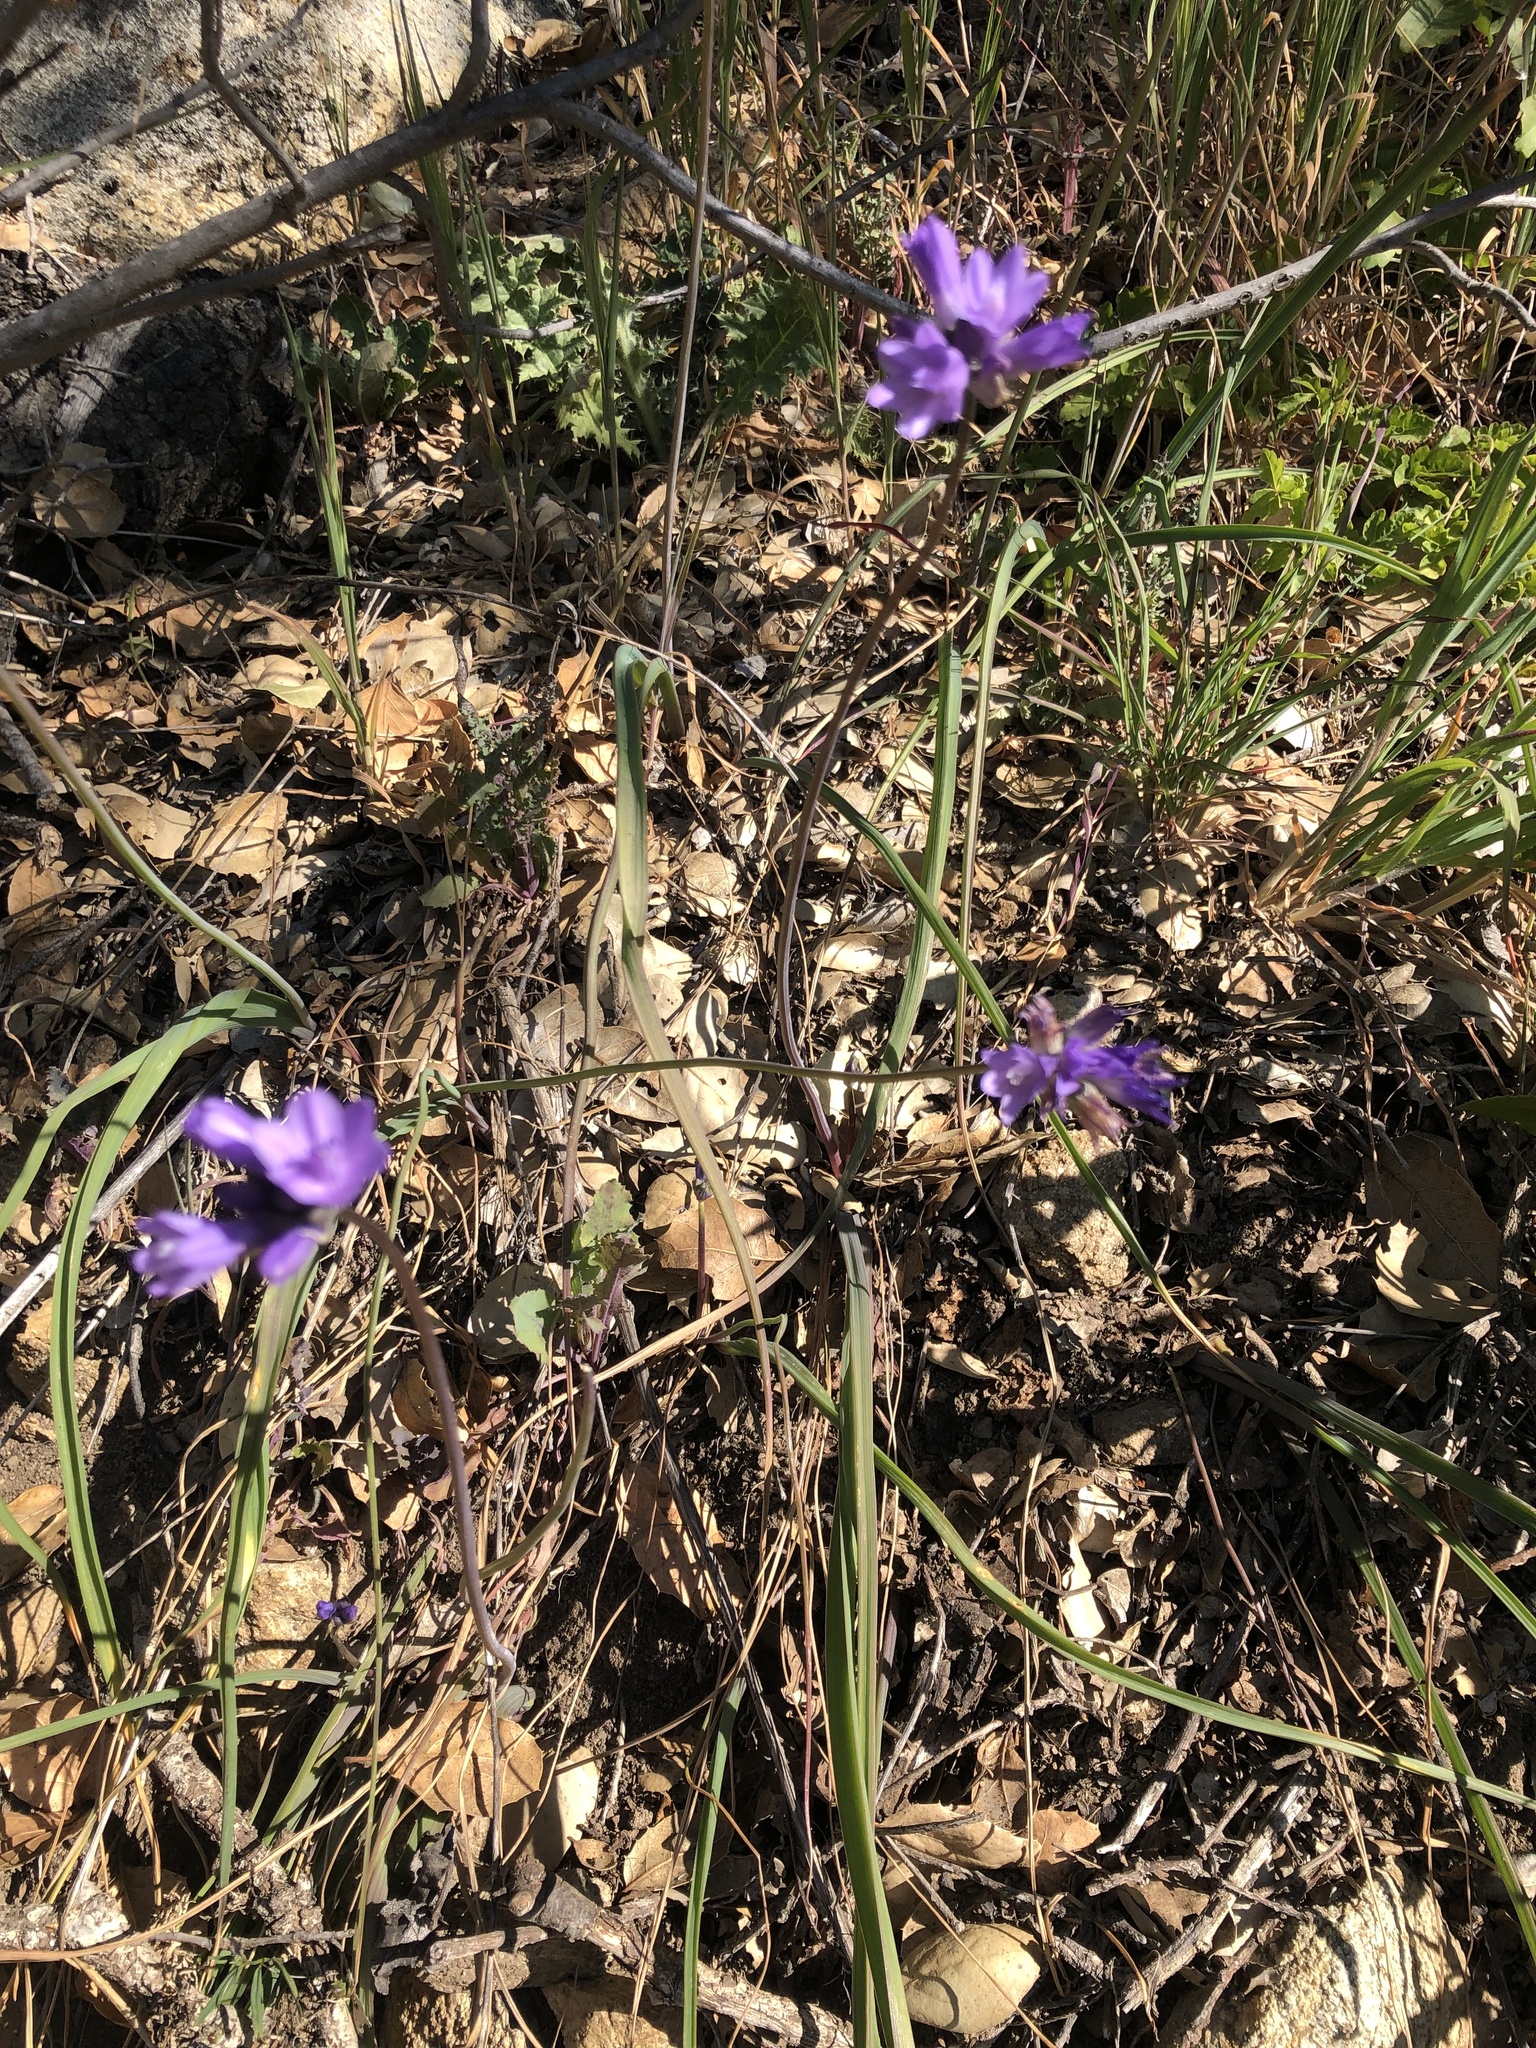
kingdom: Plantae
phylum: Tracheophyta
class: Liliopsida
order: Asparagales
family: Asparagaceae
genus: Dipterostemon
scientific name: Dipterostemon capitatus
